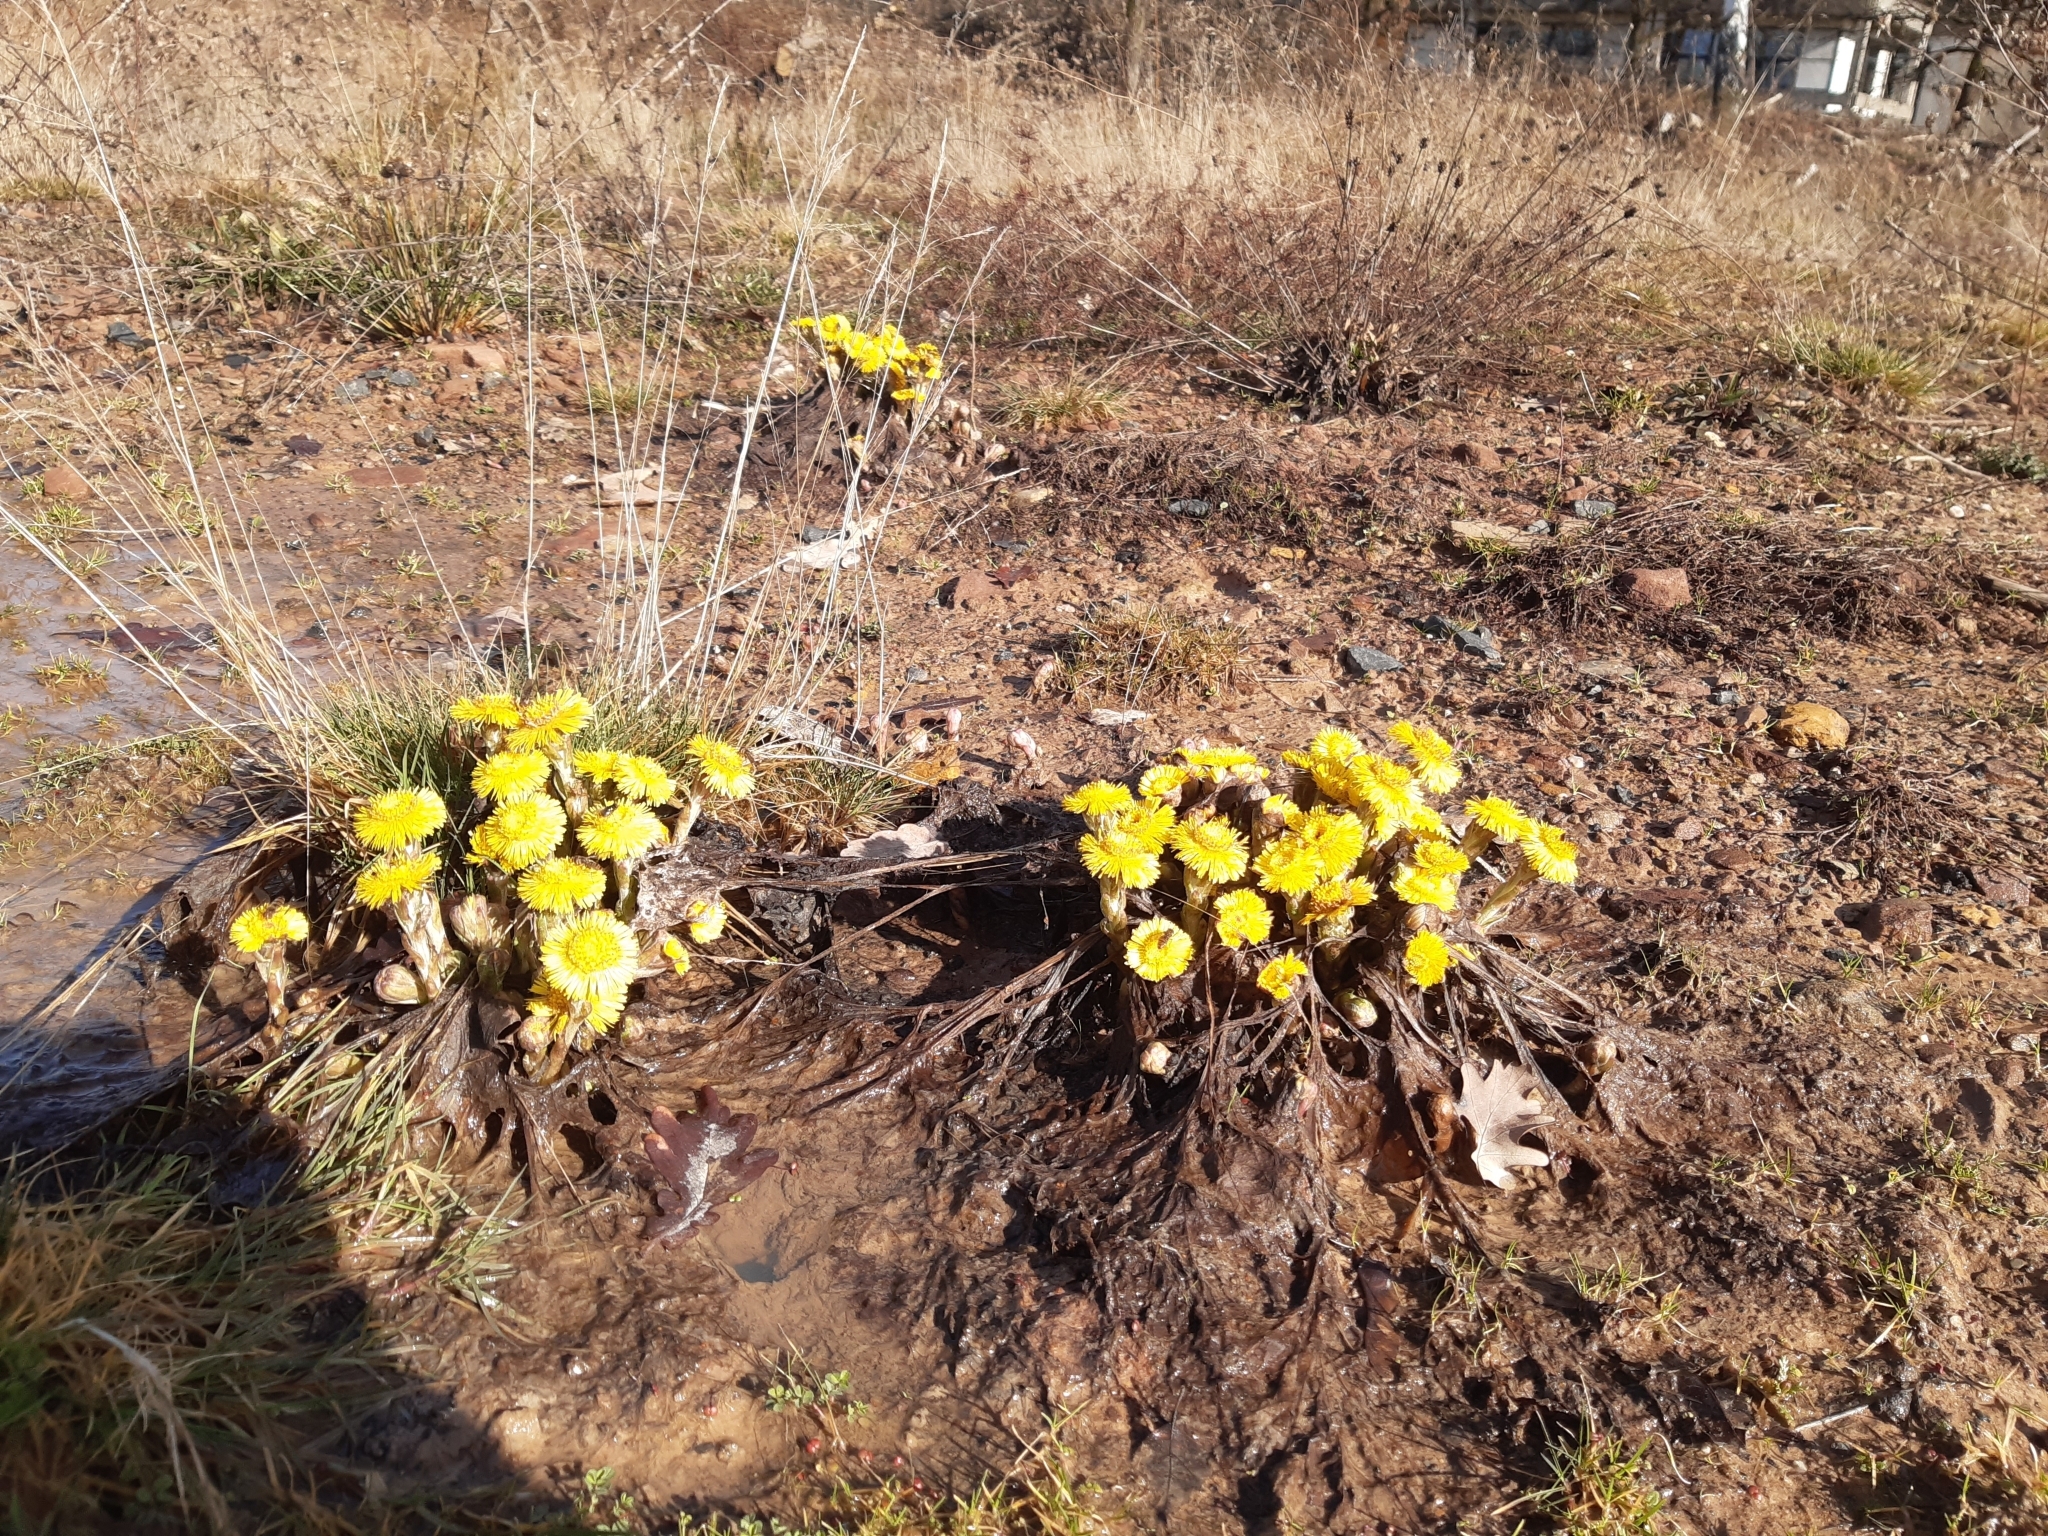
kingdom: Plantae
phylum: Tracheophyta
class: Magnoliopsida
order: Asterales
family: Asteraceae
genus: Tussilago
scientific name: Tussilago farfara
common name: Coltsfoot
